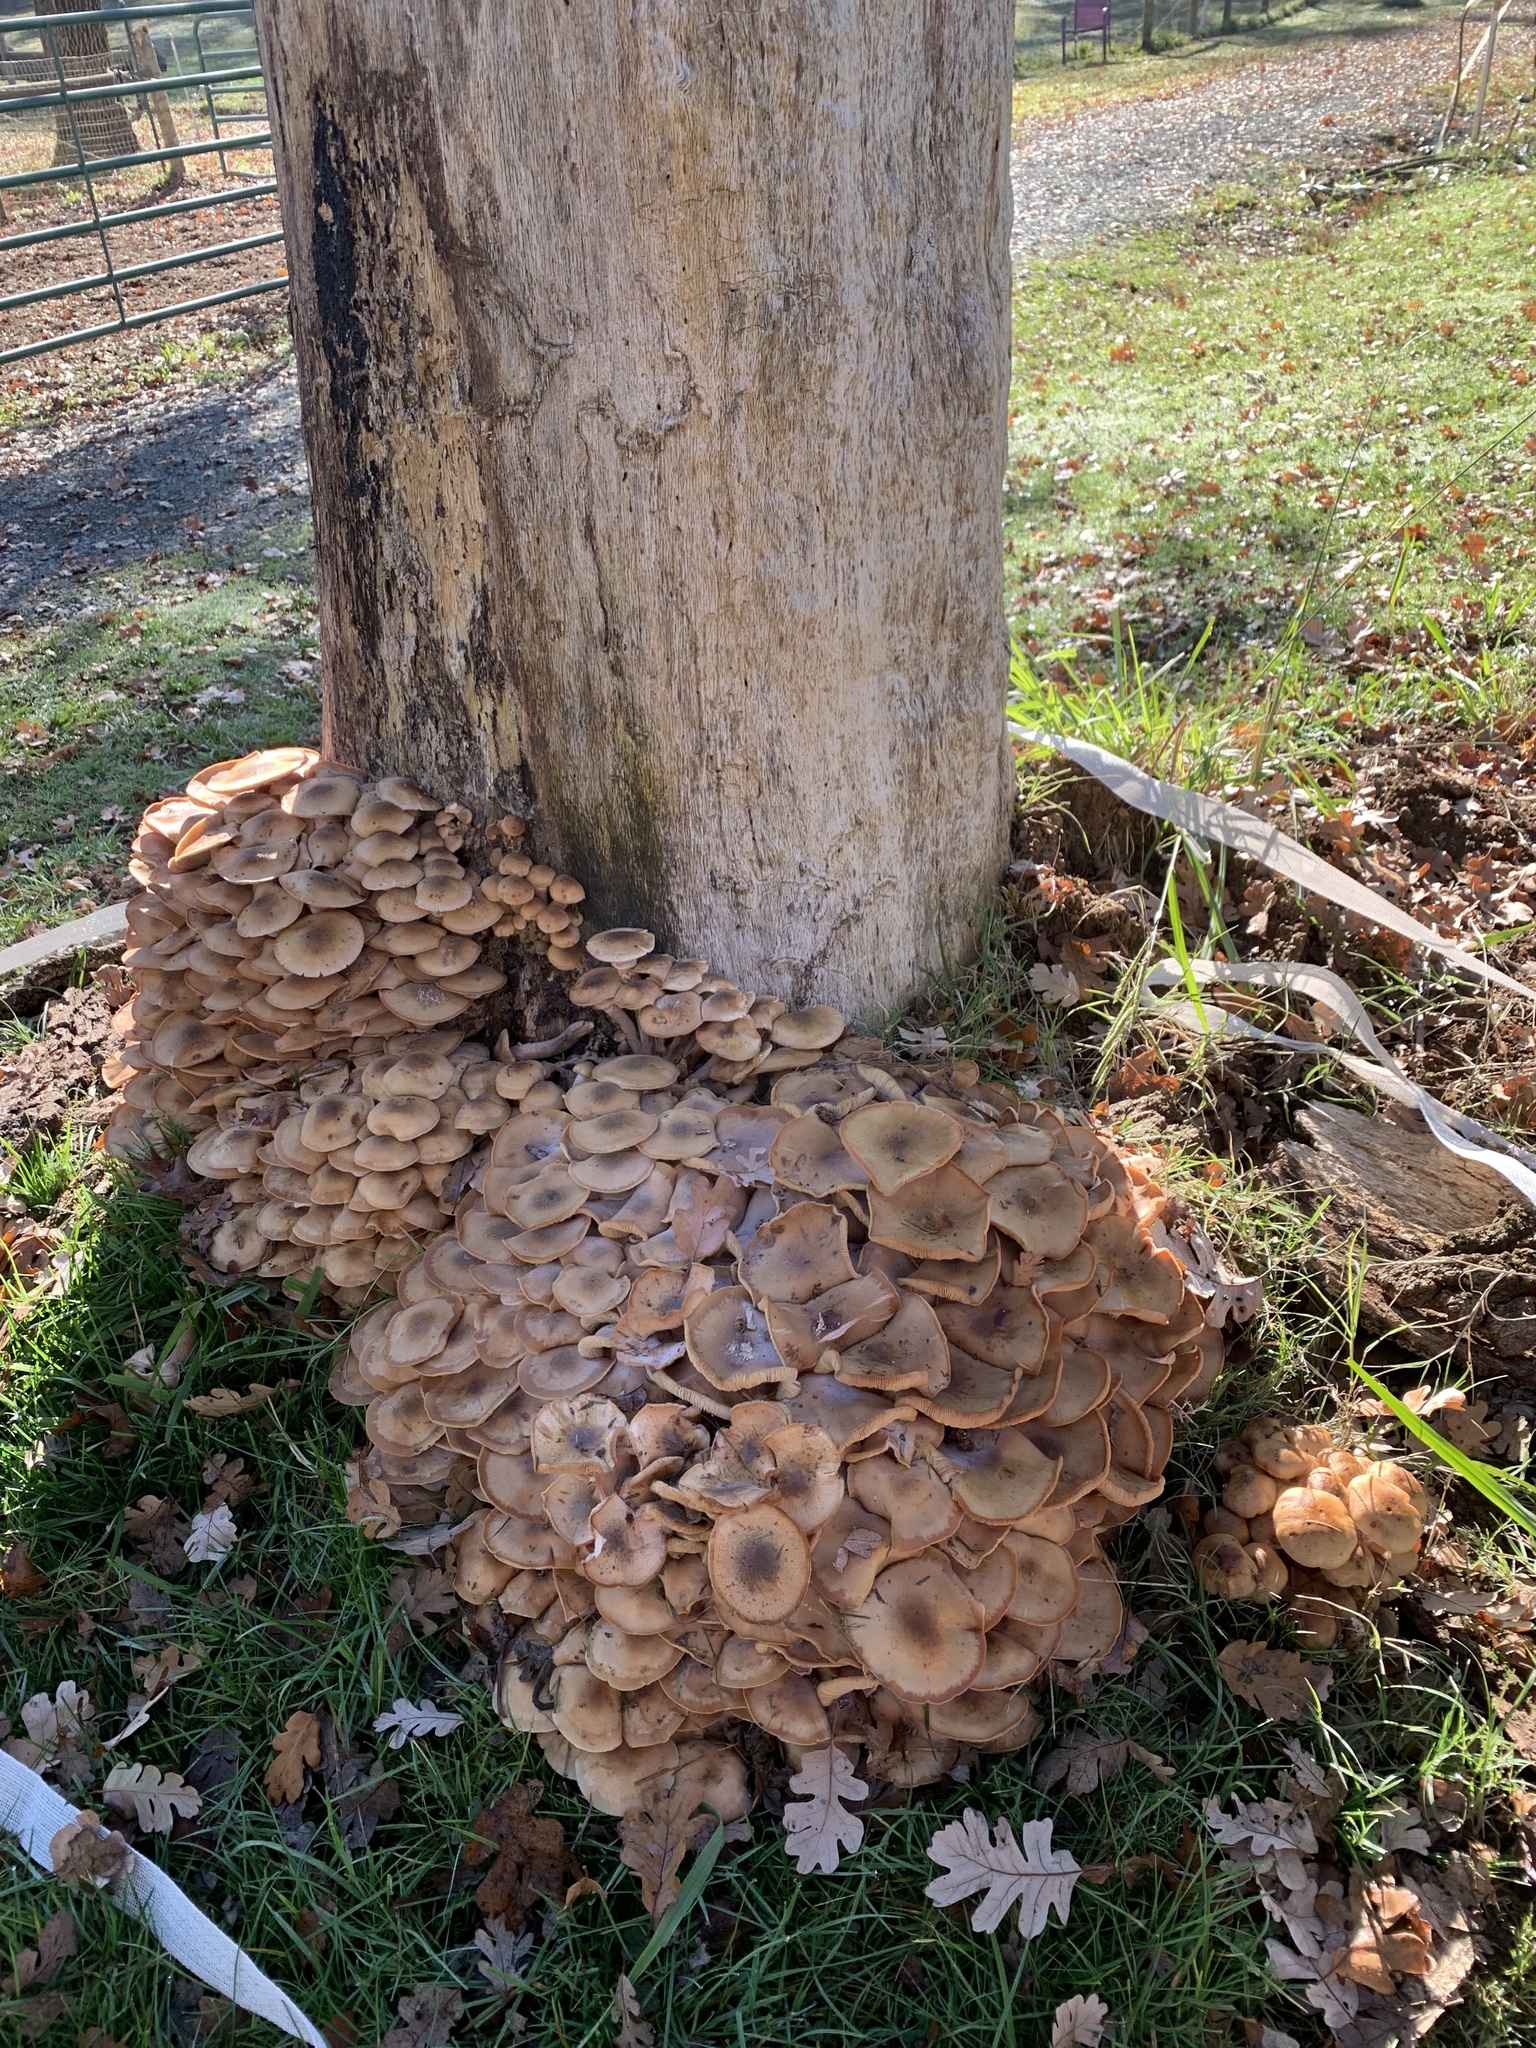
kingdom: Fungi
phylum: Basidiomycota
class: Agaricomycetes
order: Agaricales
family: Physalacriaceae
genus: Armillaria
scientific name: Armillaria mellea
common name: Honey fungus
